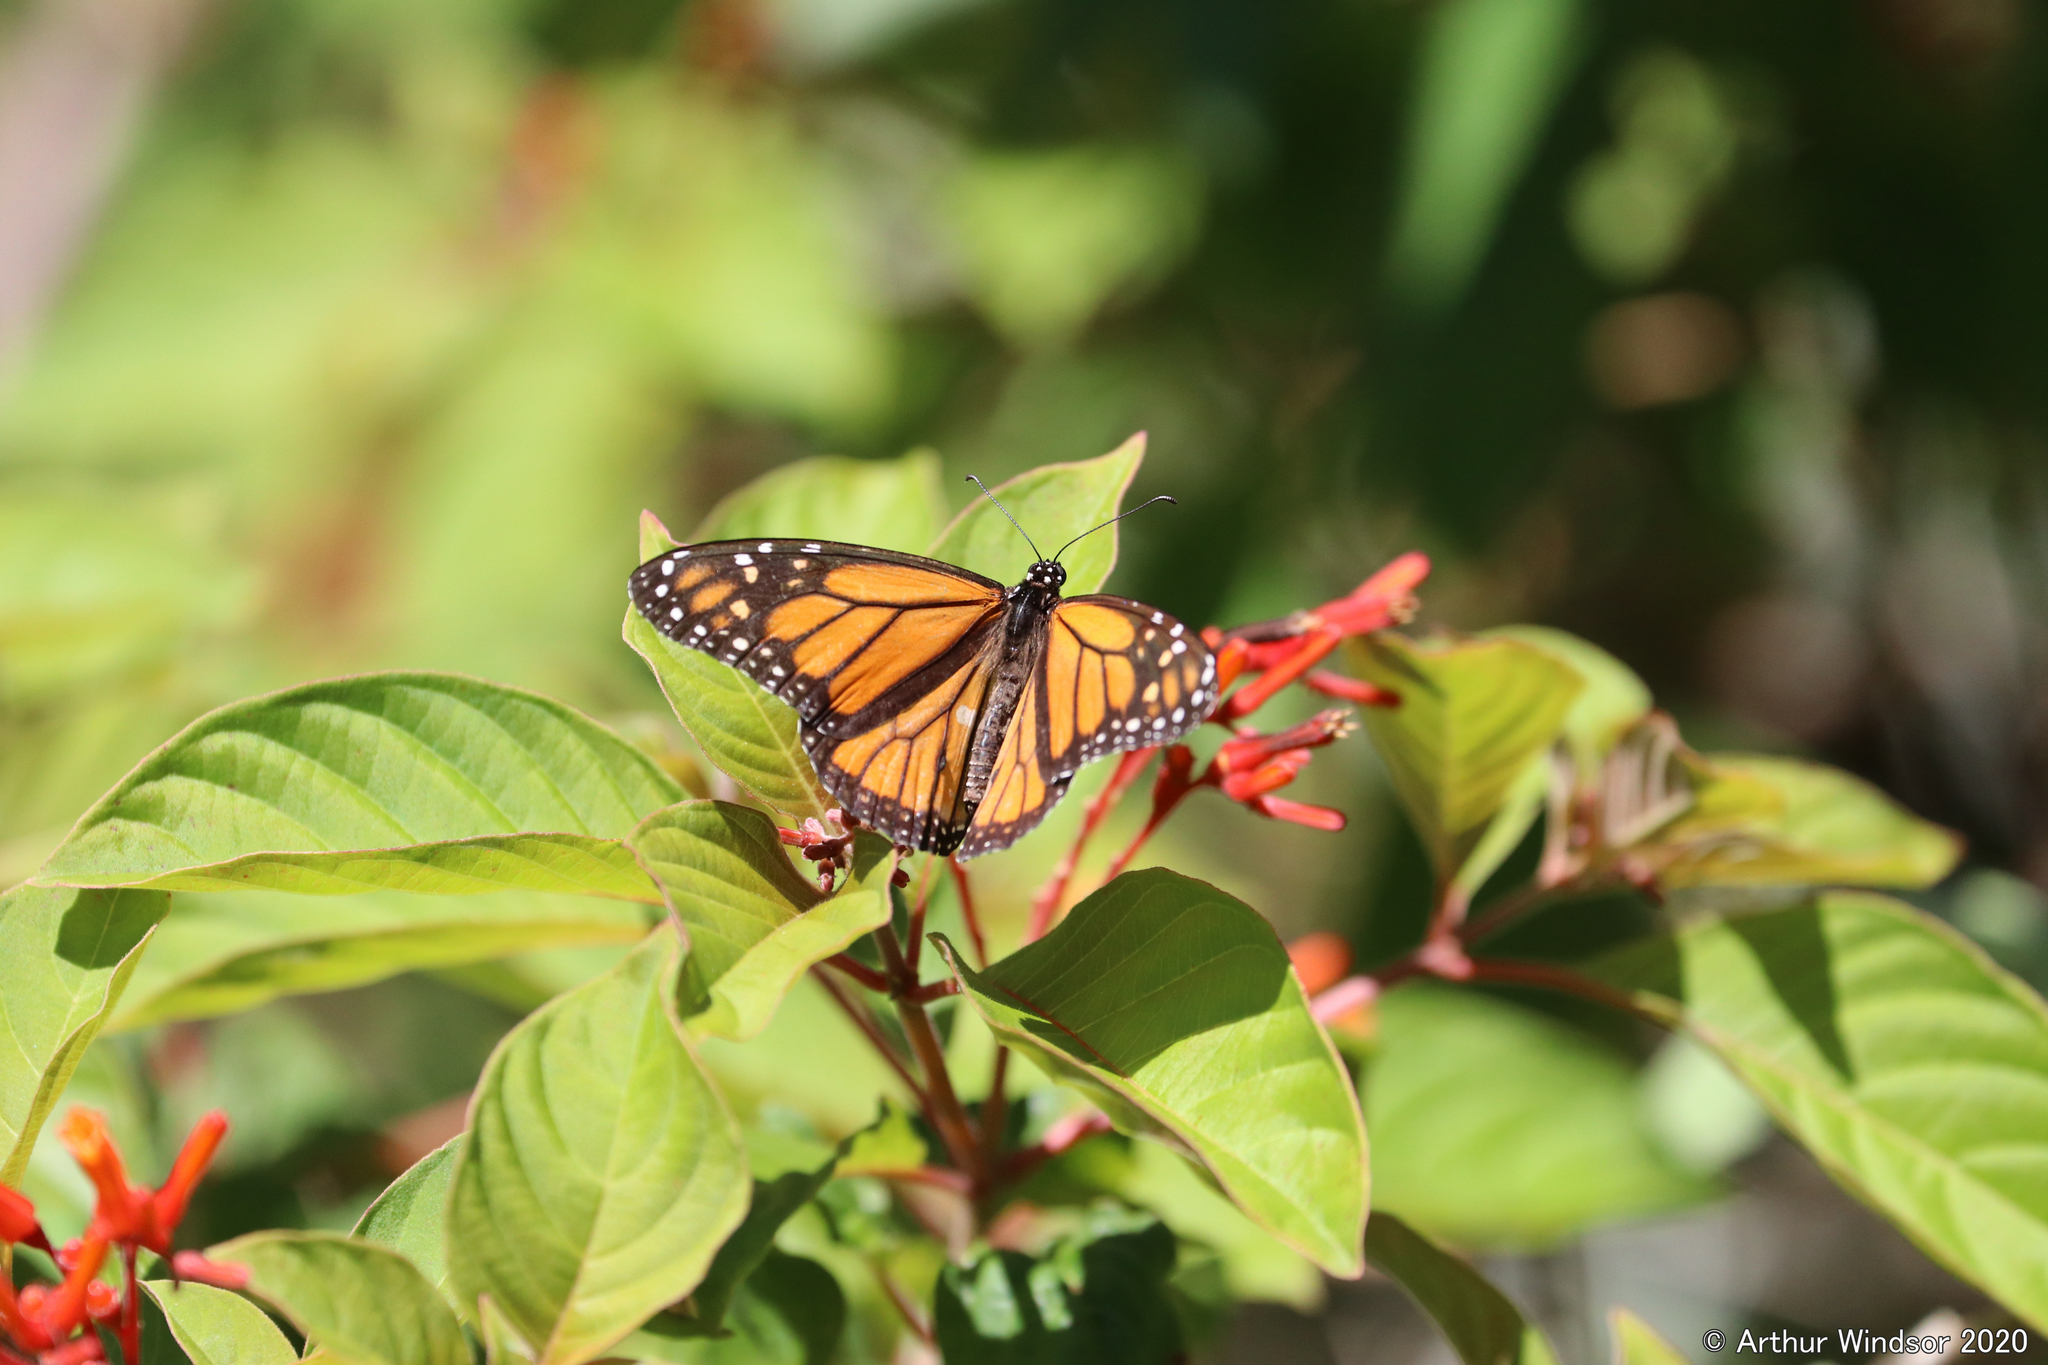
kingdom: Animalia
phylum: Arthropoda
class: Insecta
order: Lepidoptera
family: Nymphalidae
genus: Danaus
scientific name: Danaus plexippus
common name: Monarch
